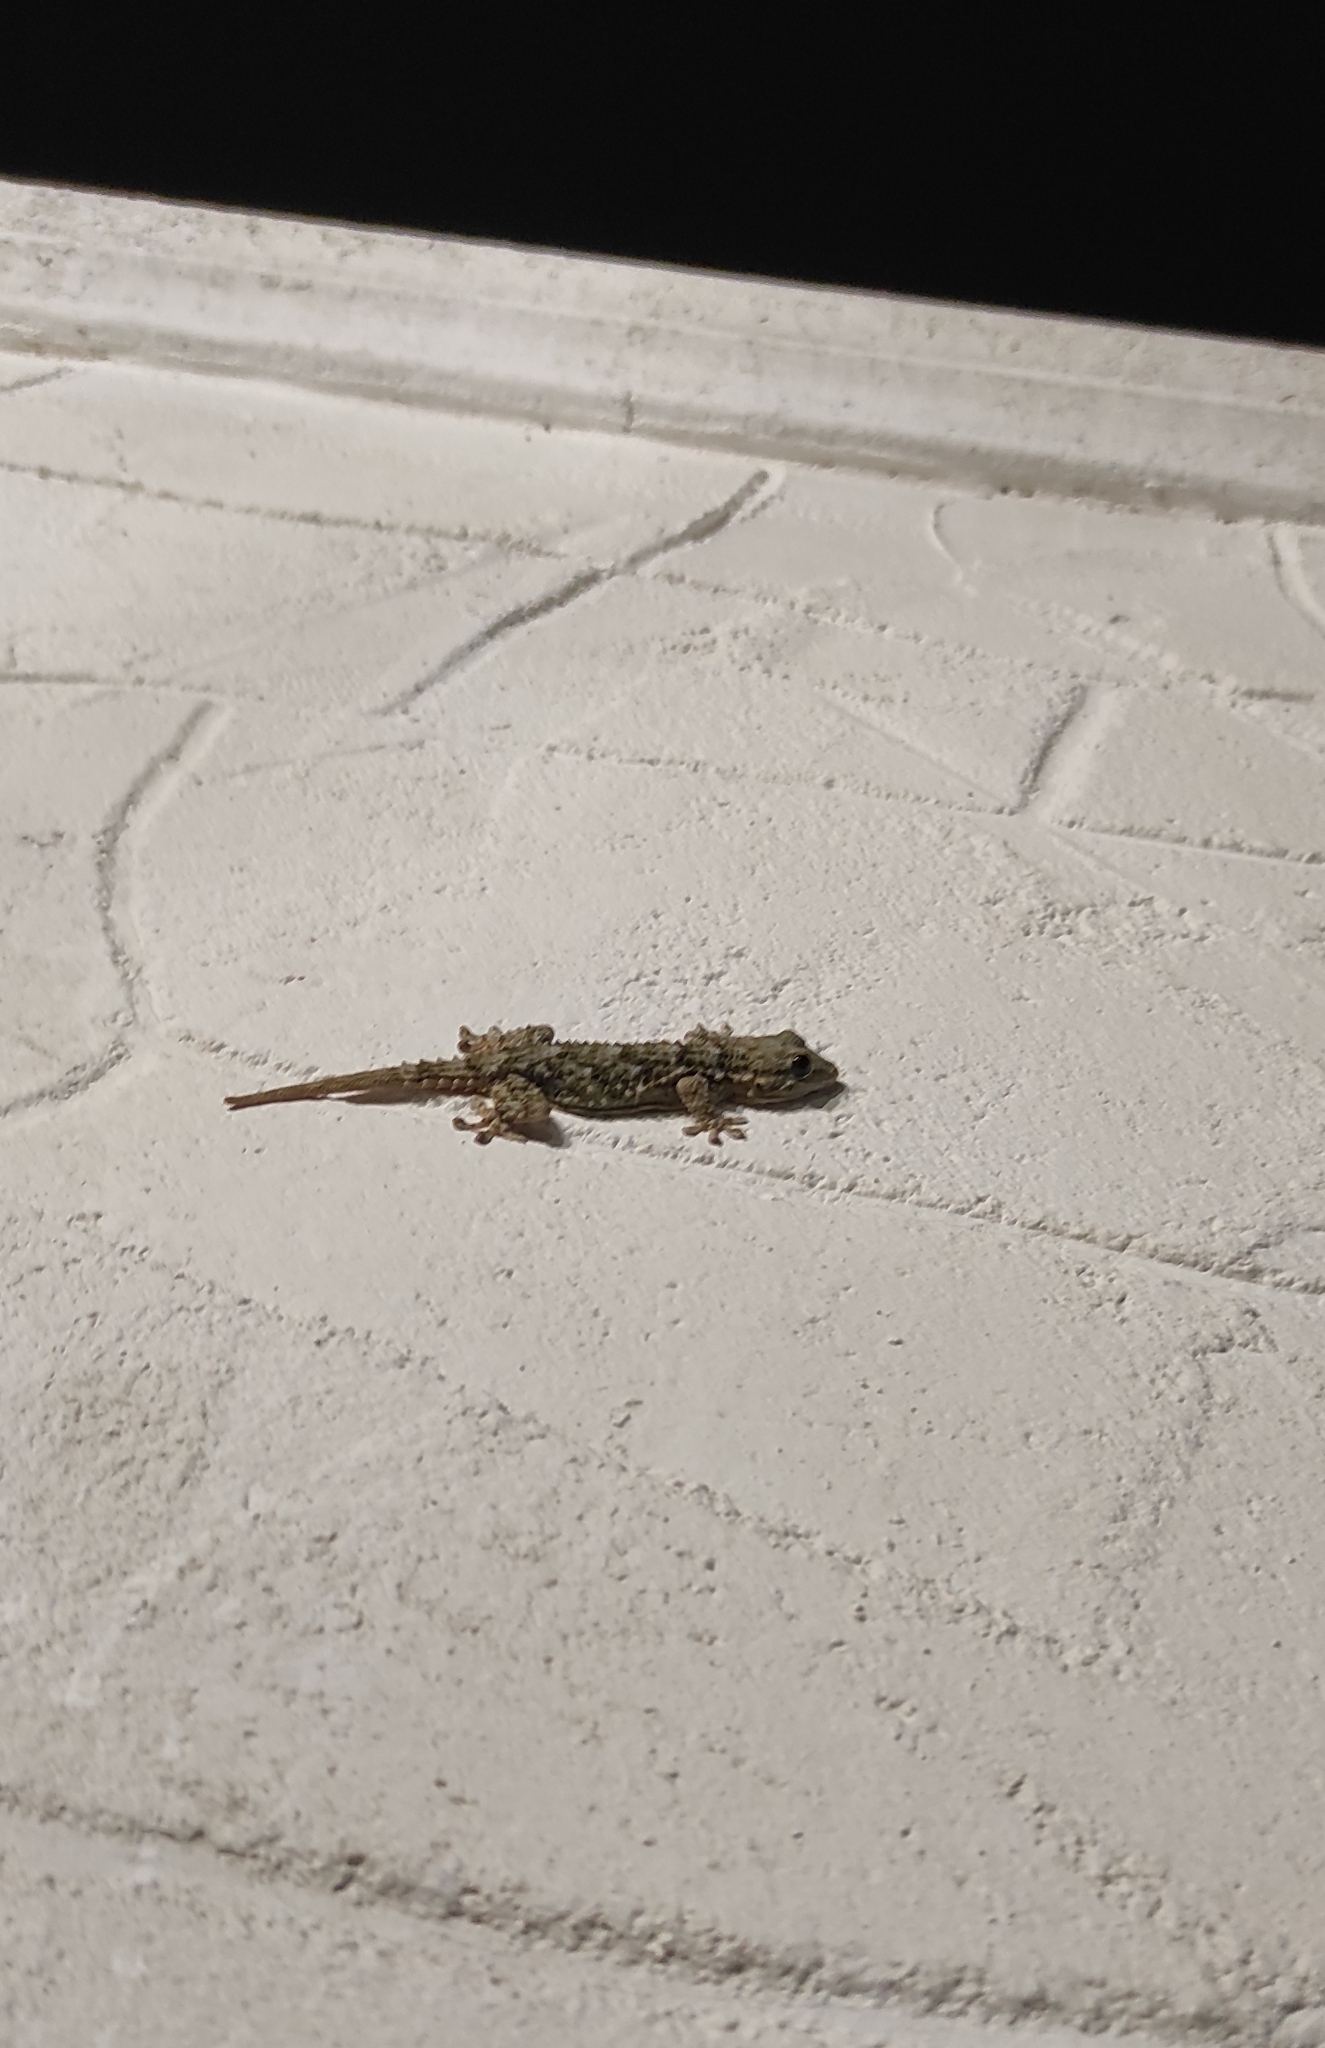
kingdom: Animalia
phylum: Chordata
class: Squamata
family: Phyllodactylidae
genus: Tarentola
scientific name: Tarentola mauritanica
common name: Moorish gecko
